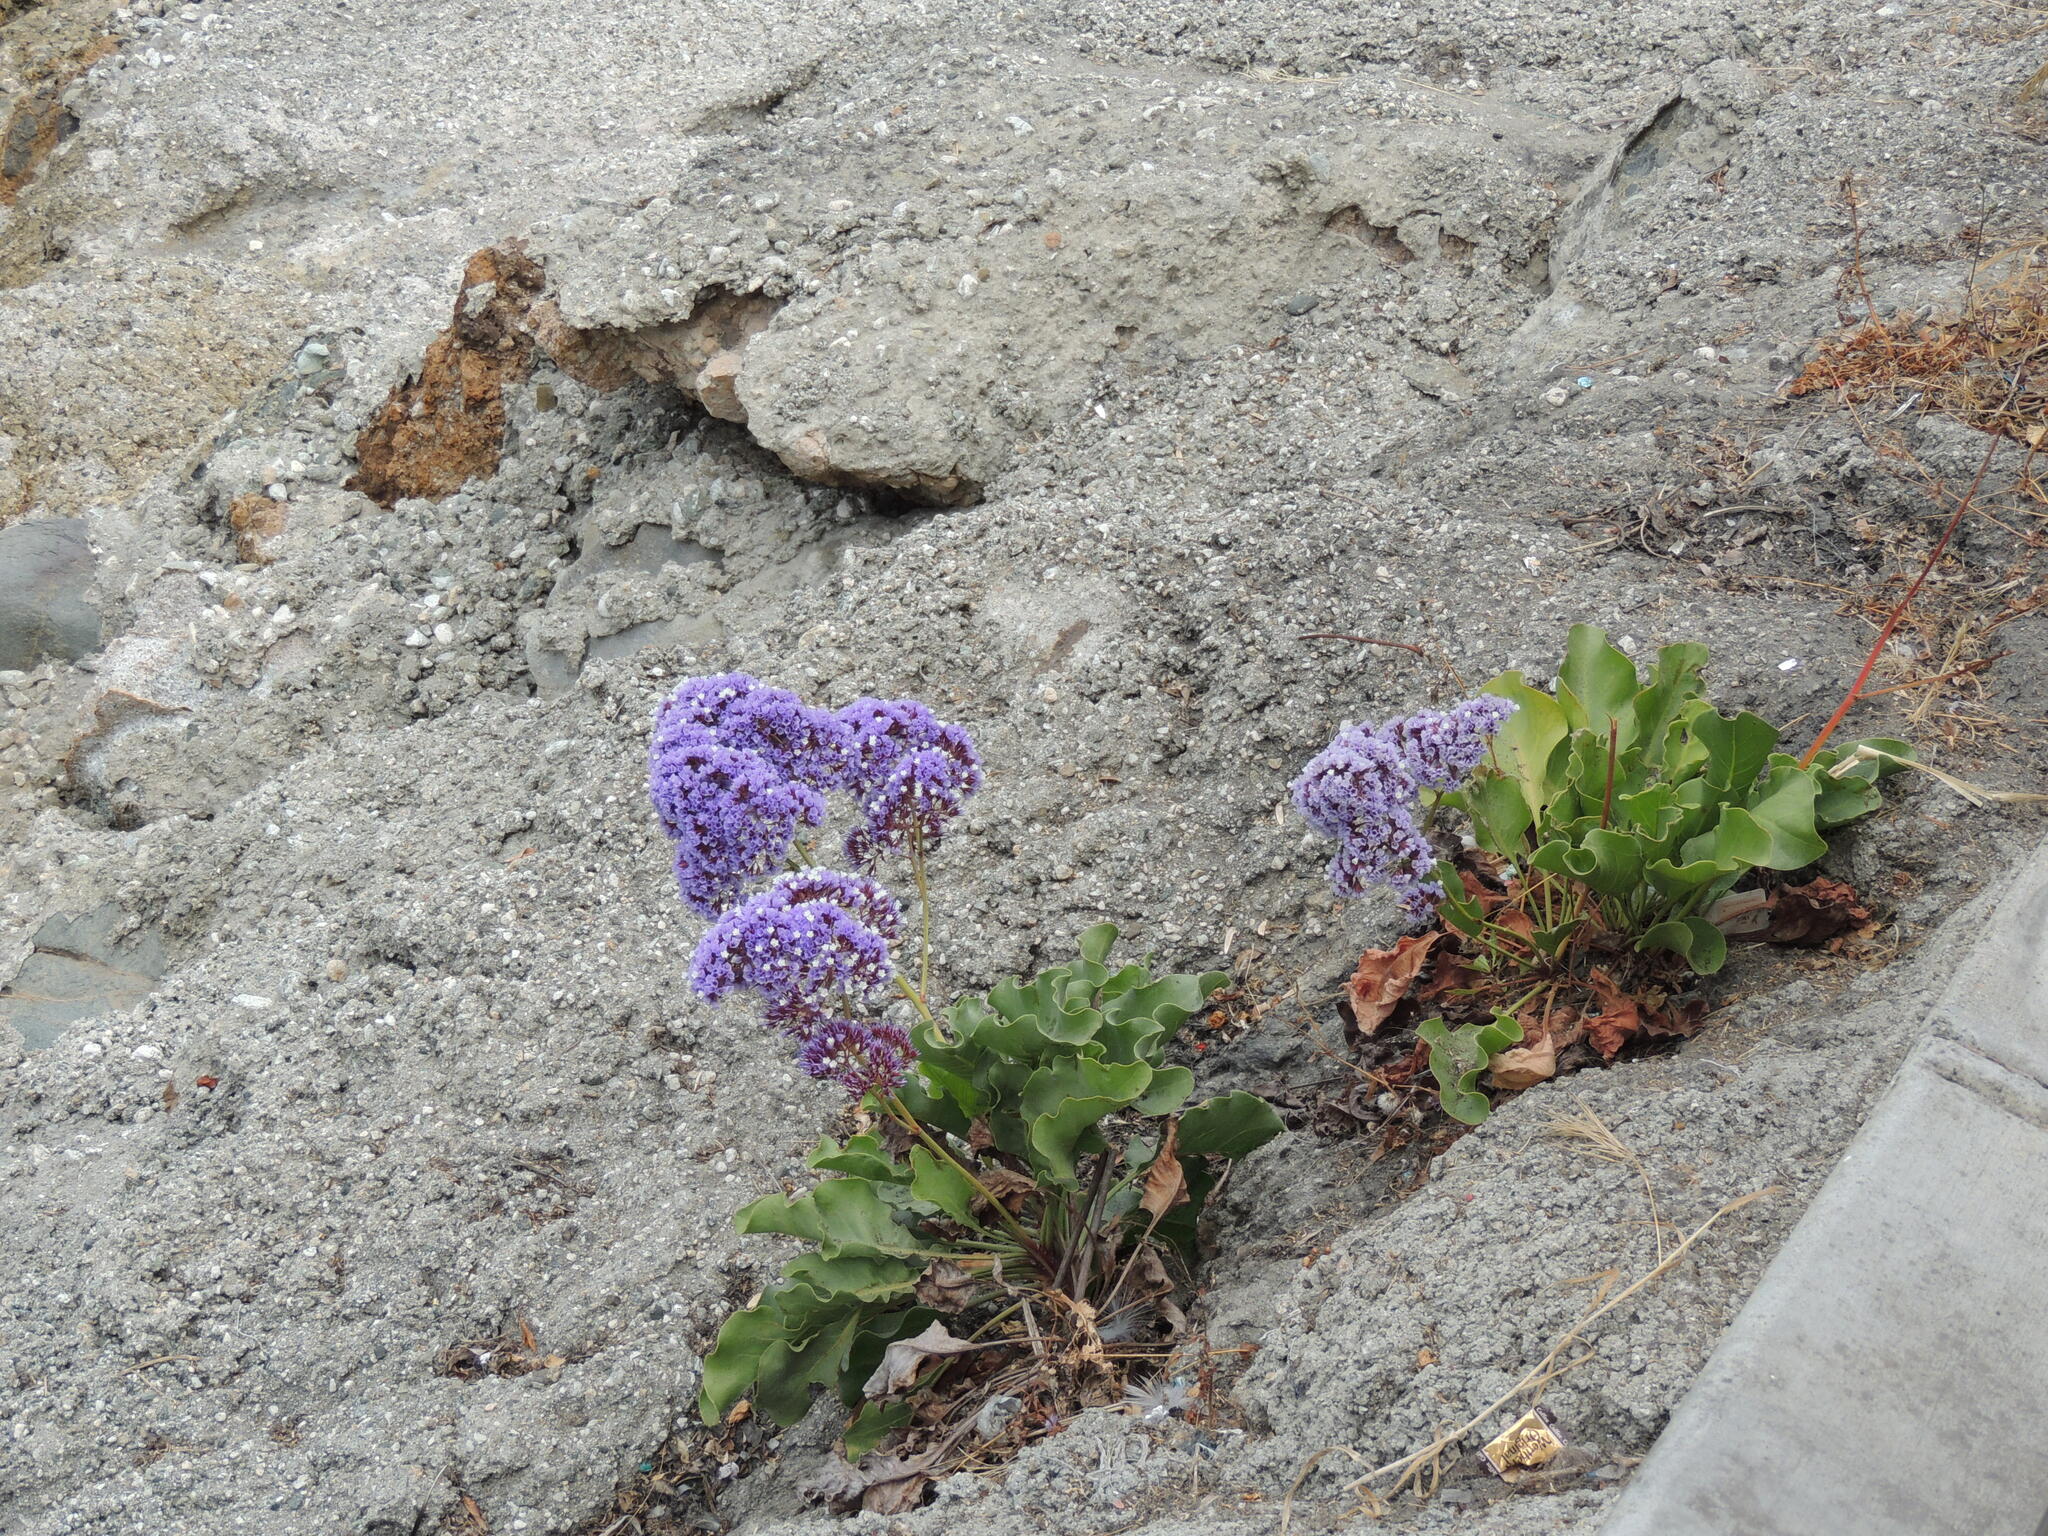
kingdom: Plantae
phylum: Tracheophyta
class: Magnoliopsida
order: Caryophyllales
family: Plumbaginaceae
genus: Limonium
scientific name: Limonium perezii
